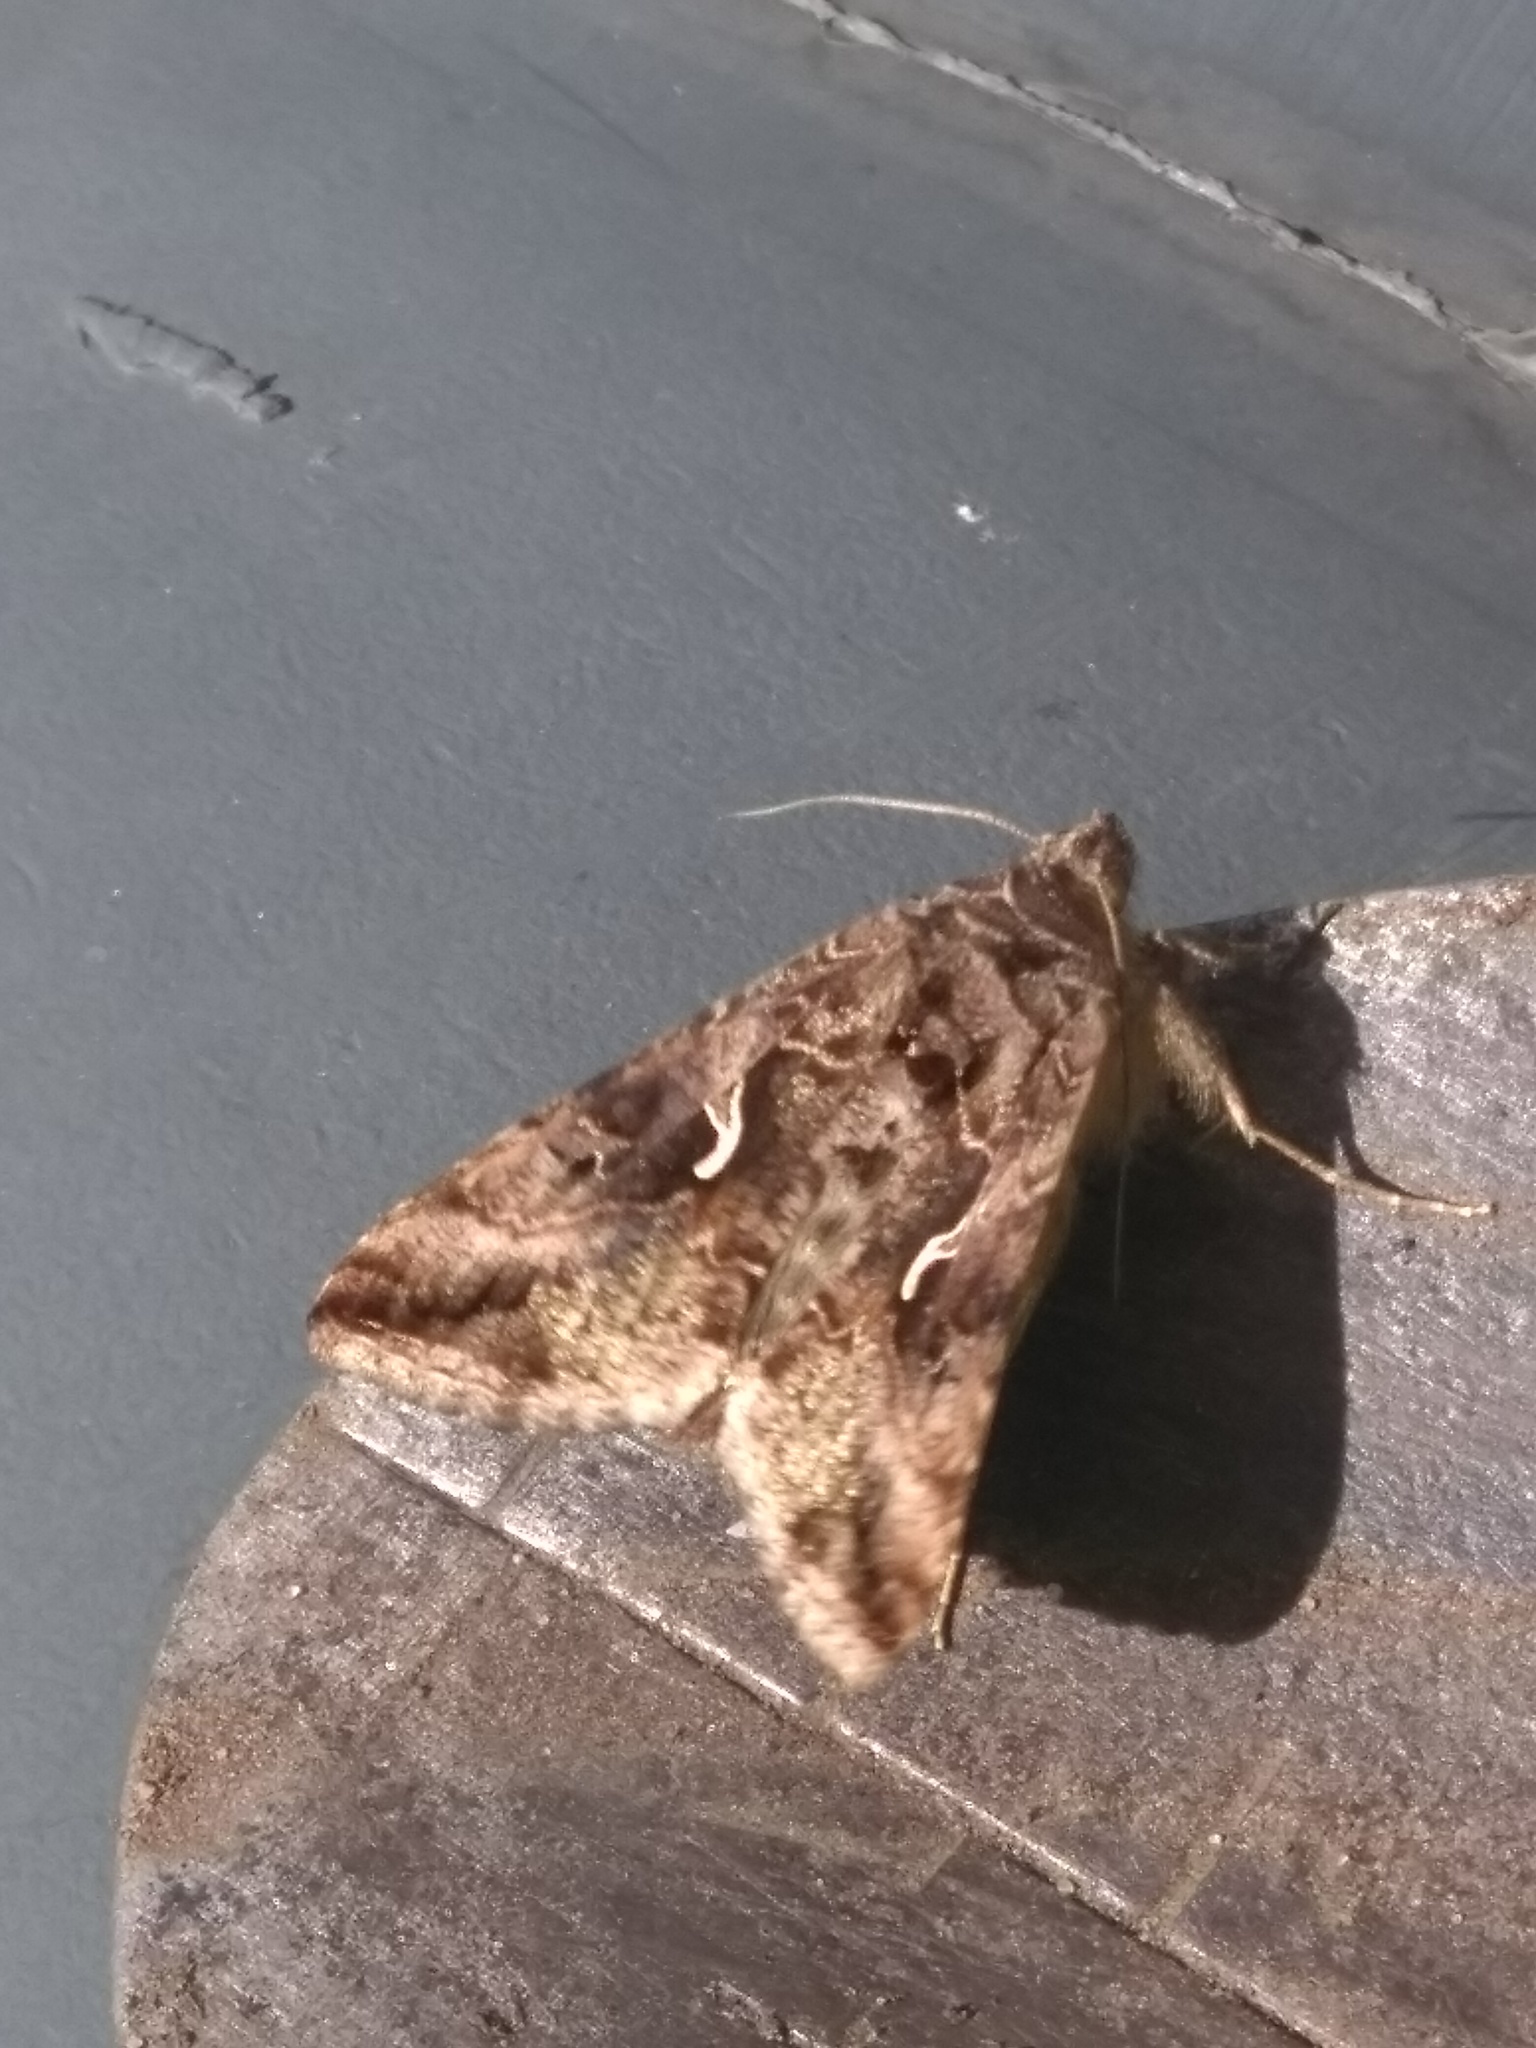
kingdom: Animalia
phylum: Arthropoda
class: Insecta
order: Lepidoptera
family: Noctuidae
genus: Autographa
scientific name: Autographa gamma
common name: Silver y
